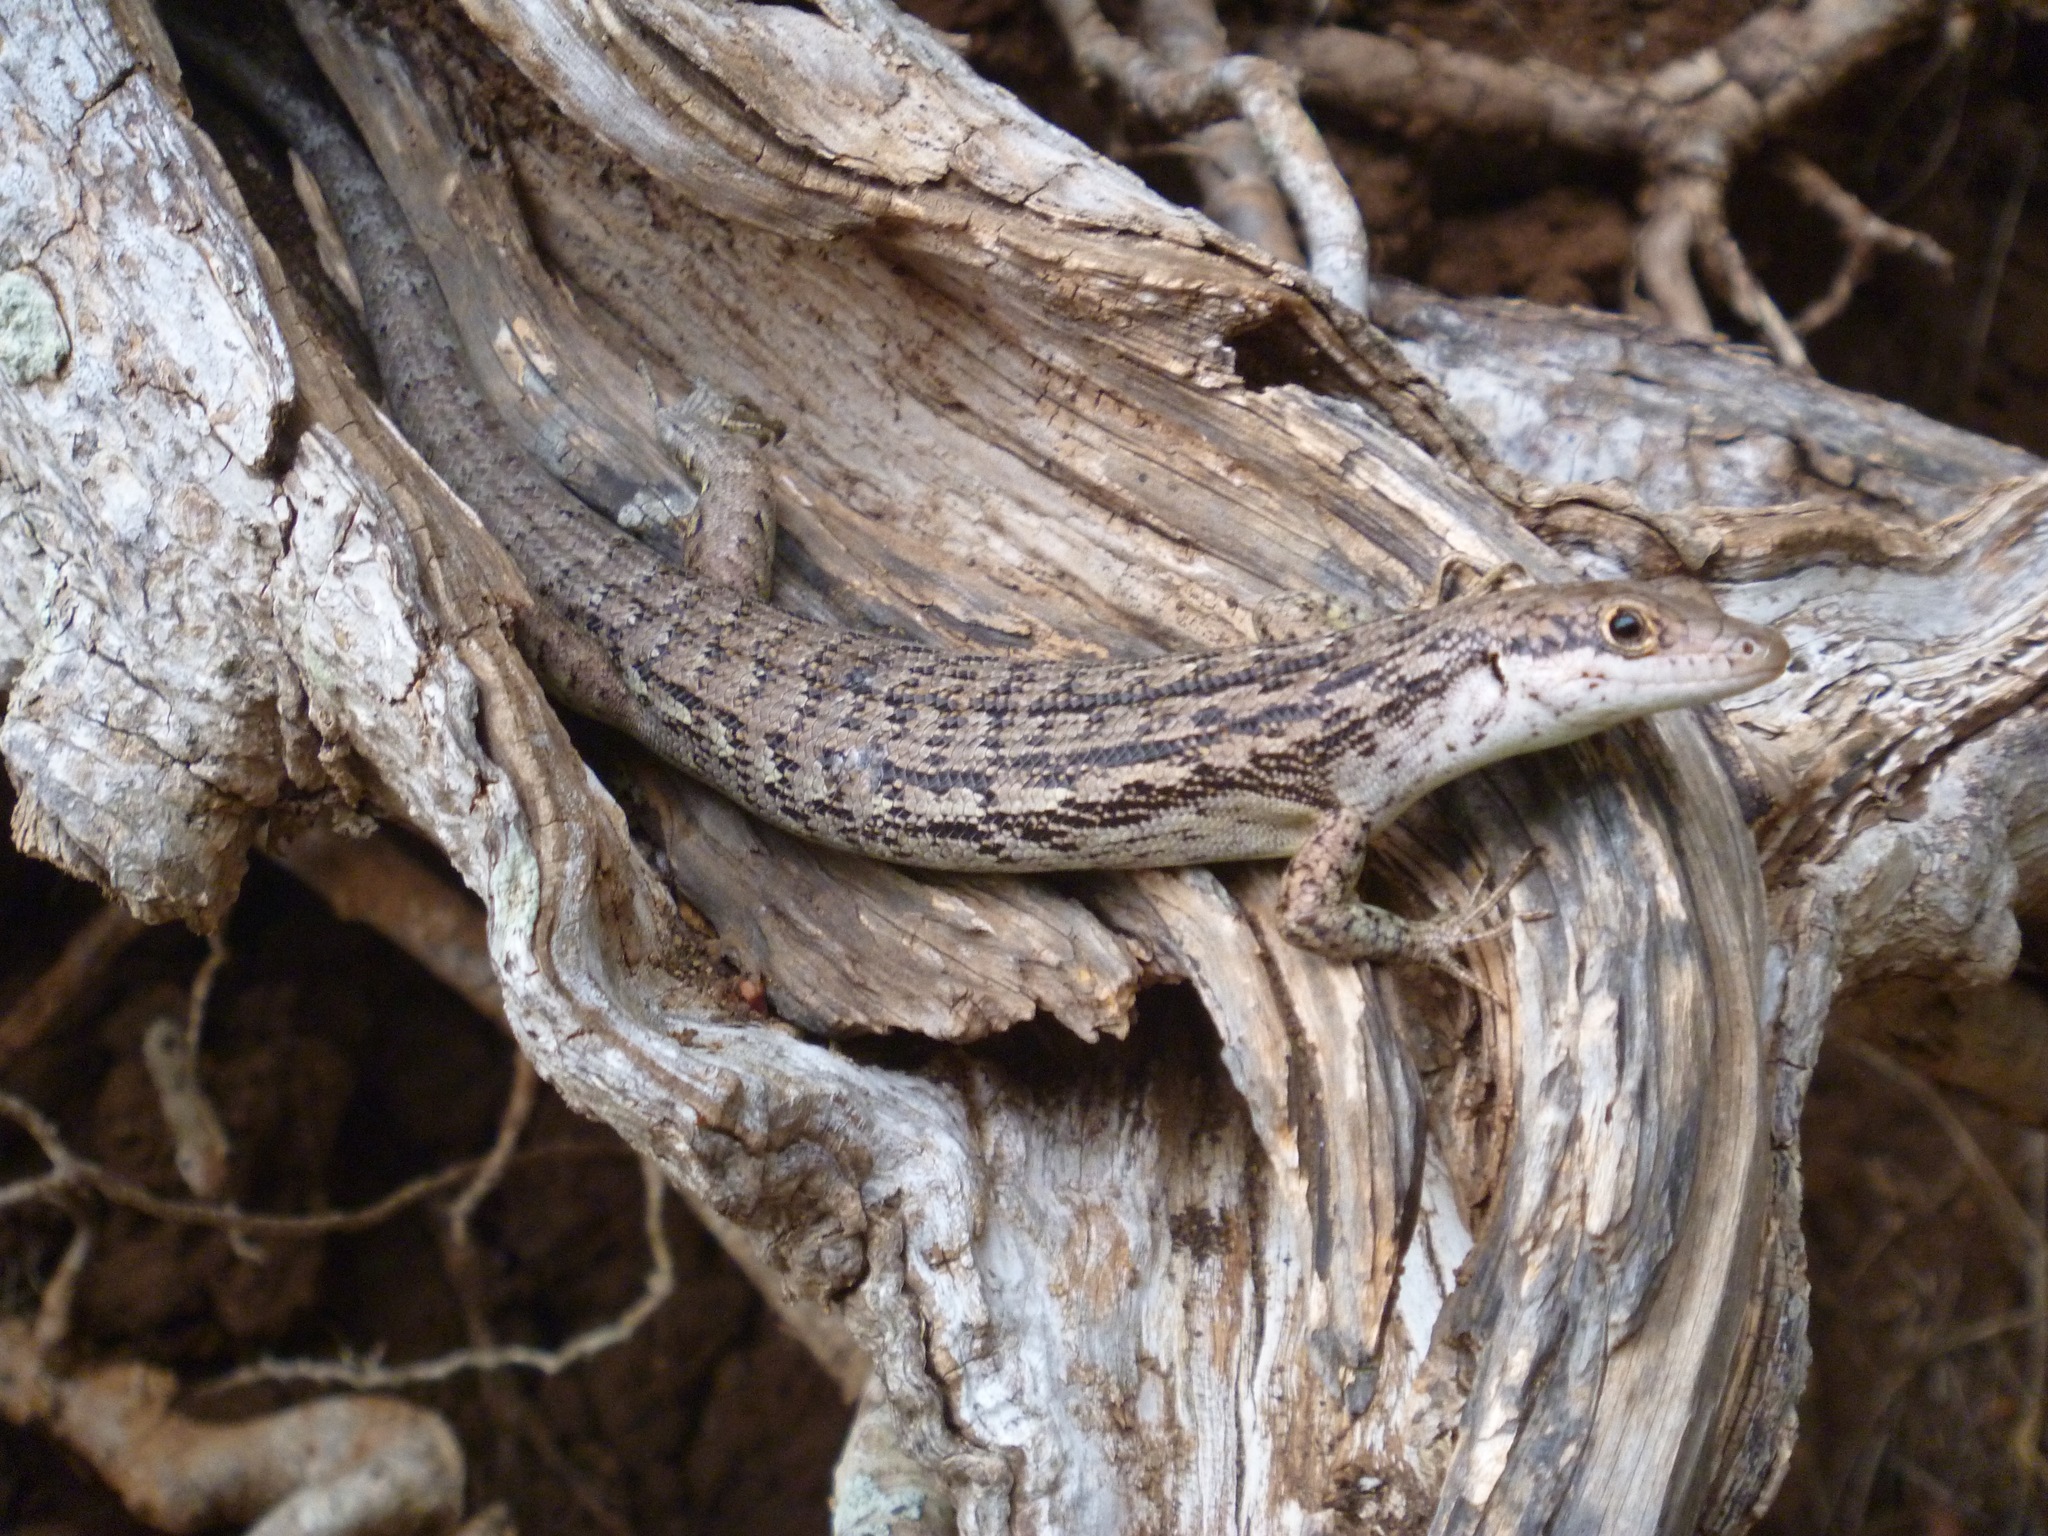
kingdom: Animalia
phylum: Chordata
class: Squamata
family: Scincidae
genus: Epibator
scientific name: Epibator nigrofasciolatus
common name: Green-bellied tree skink
